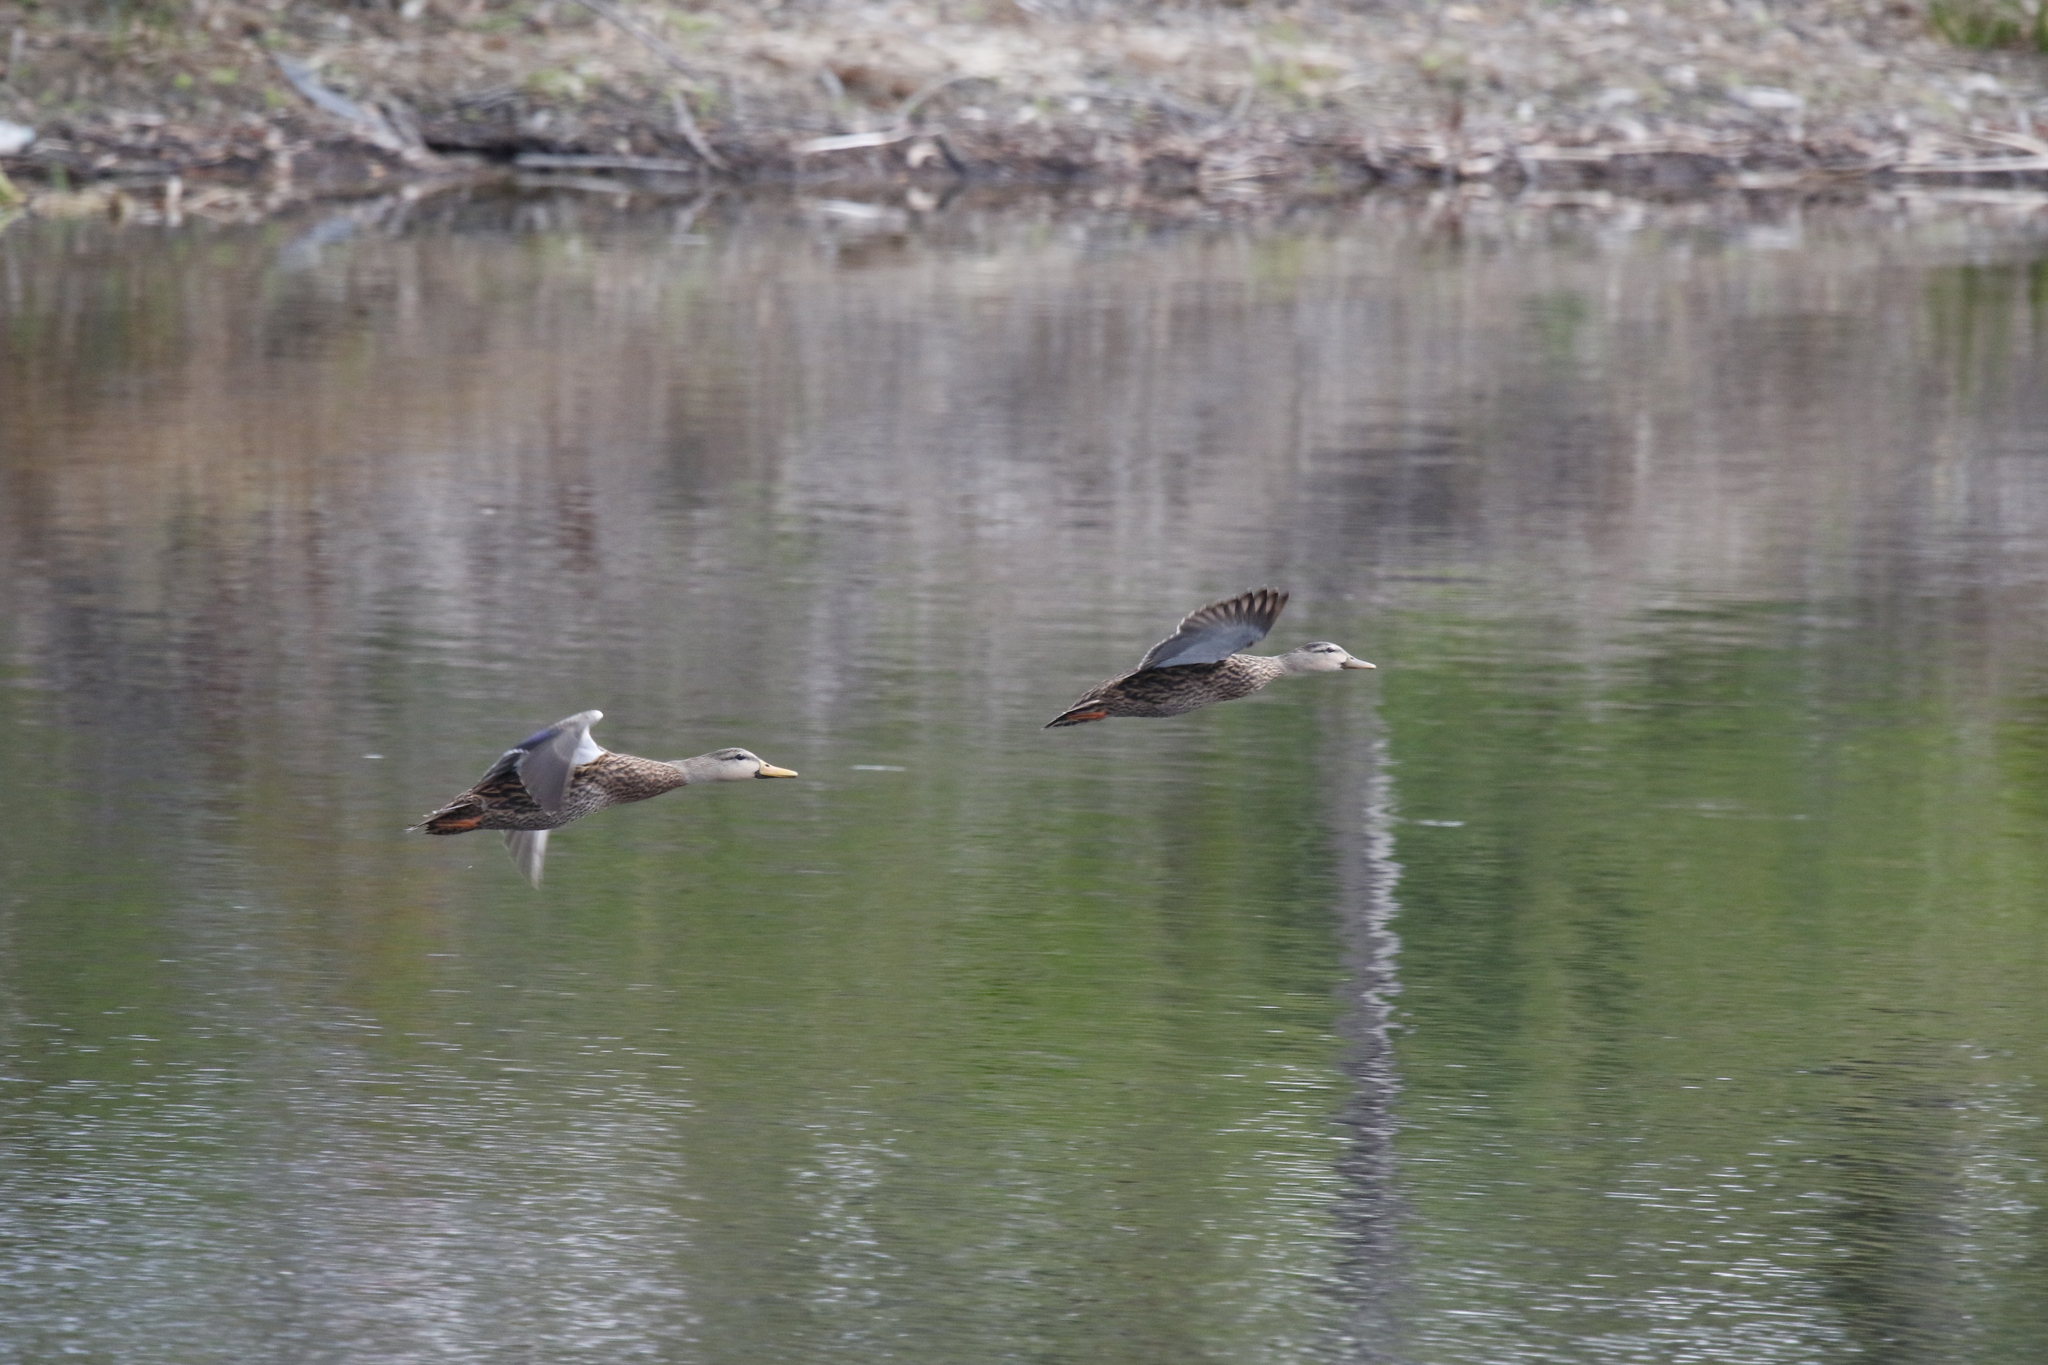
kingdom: Animalia
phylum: Chordata
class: Aves
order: Anseriformes
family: Anatidae
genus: Anas
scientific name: Anas
